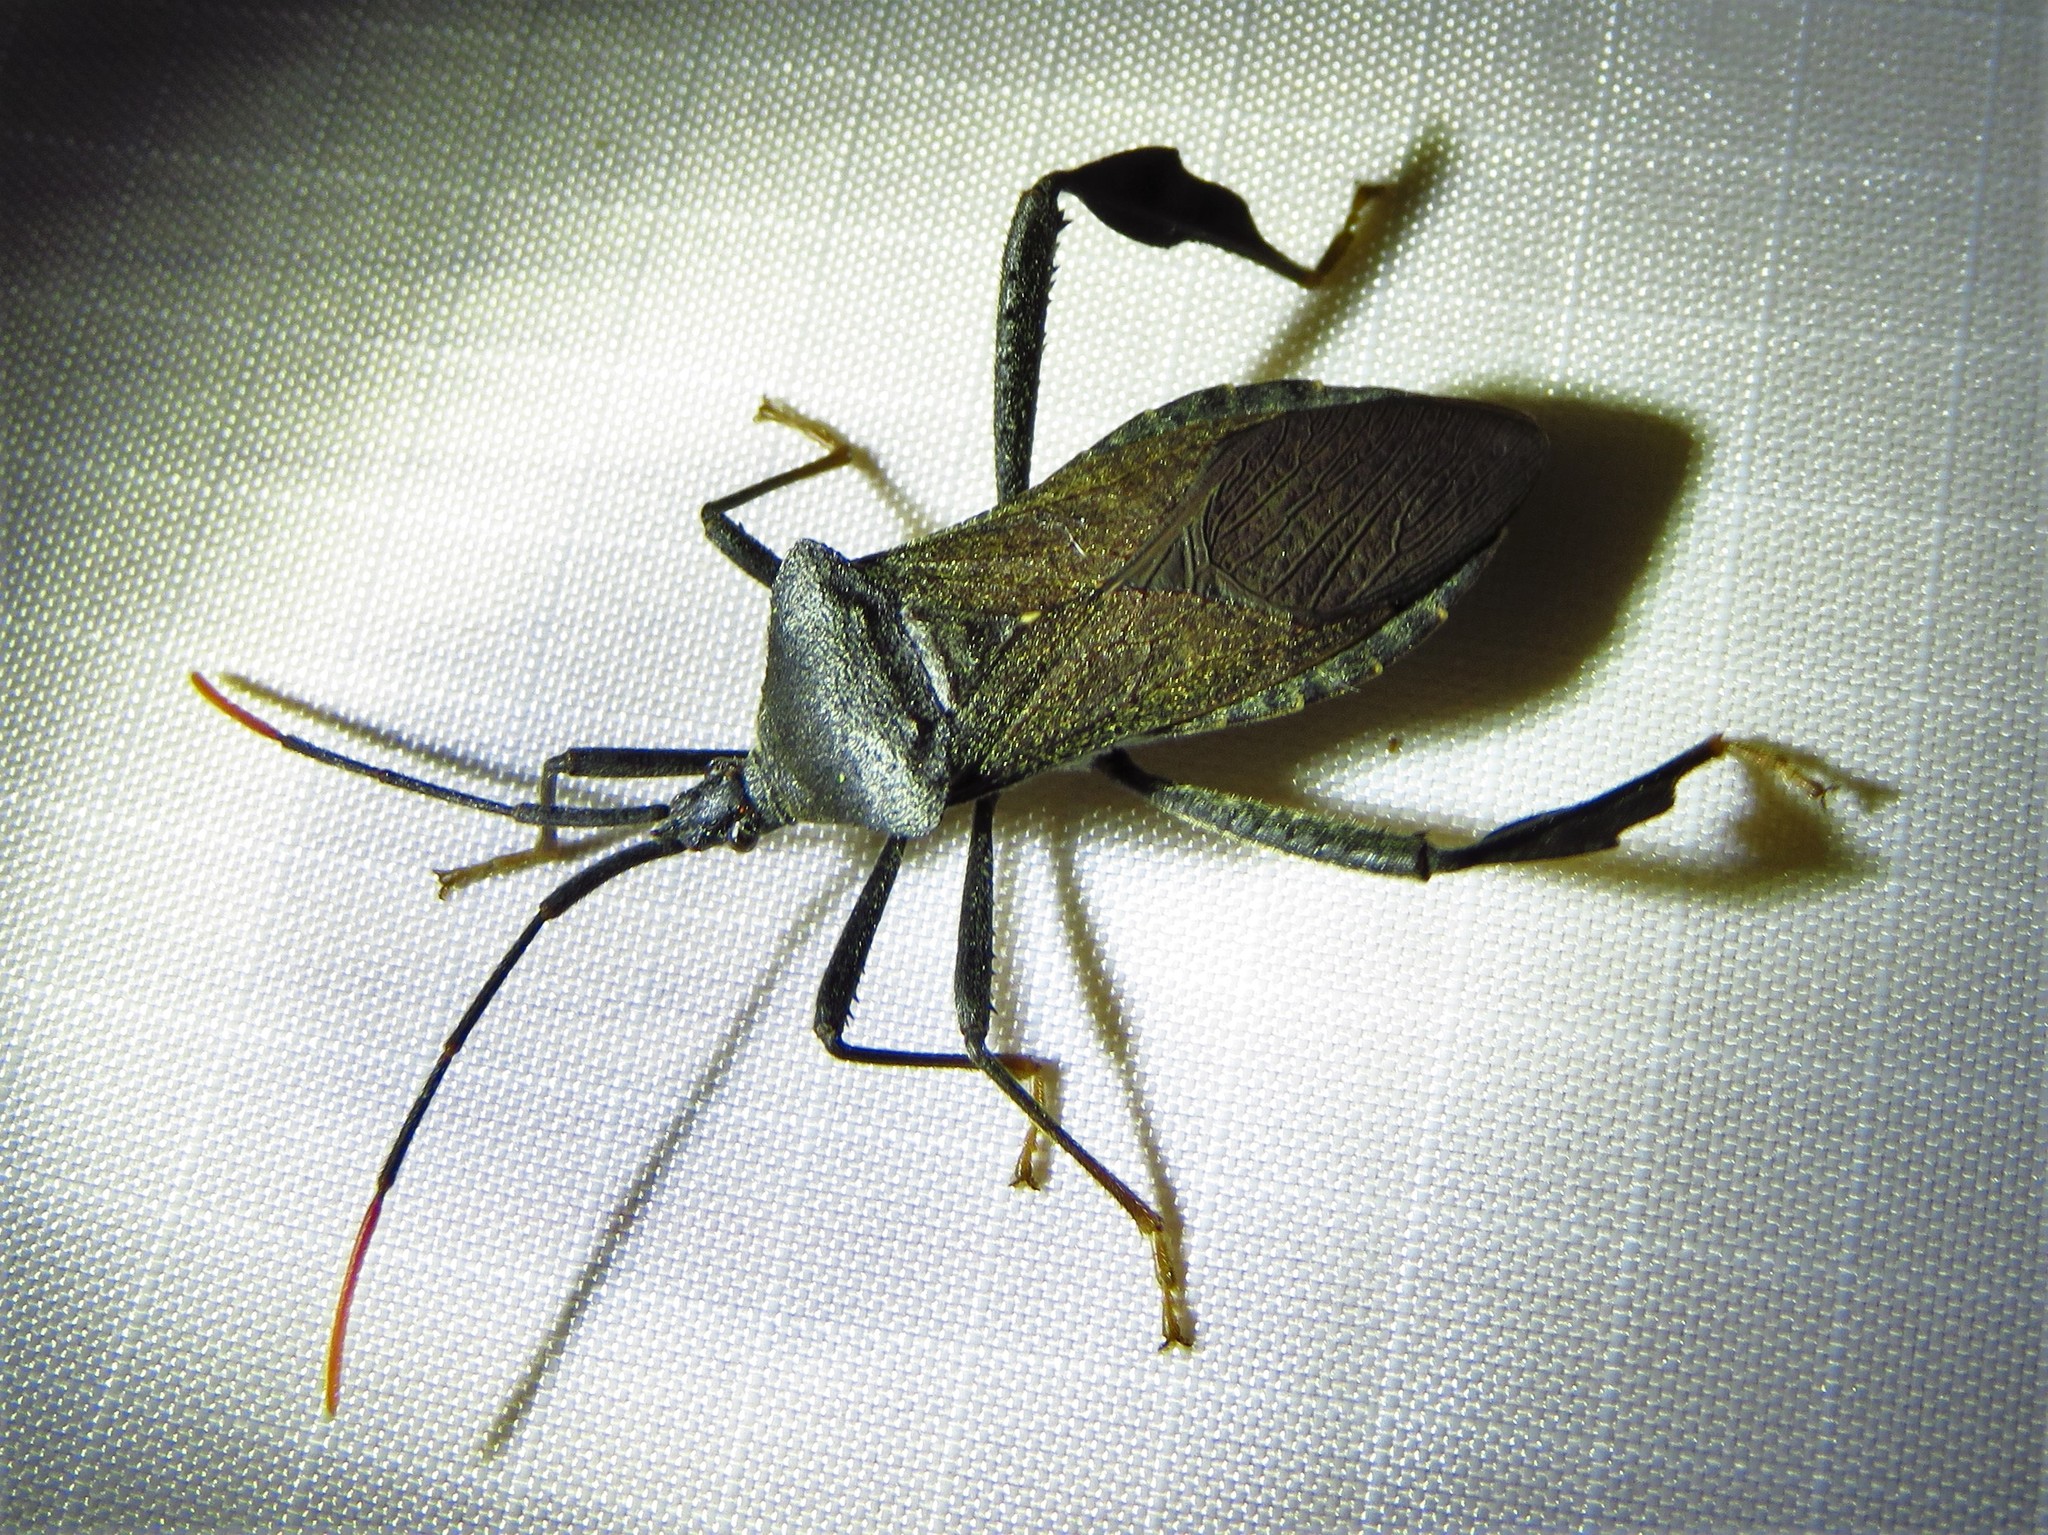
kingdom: Animalia
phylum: Arthropoda
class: Insecta
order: Hemiptera
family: Coreidae
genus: Acanthocephala
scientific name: Acanthocephala terminalis
